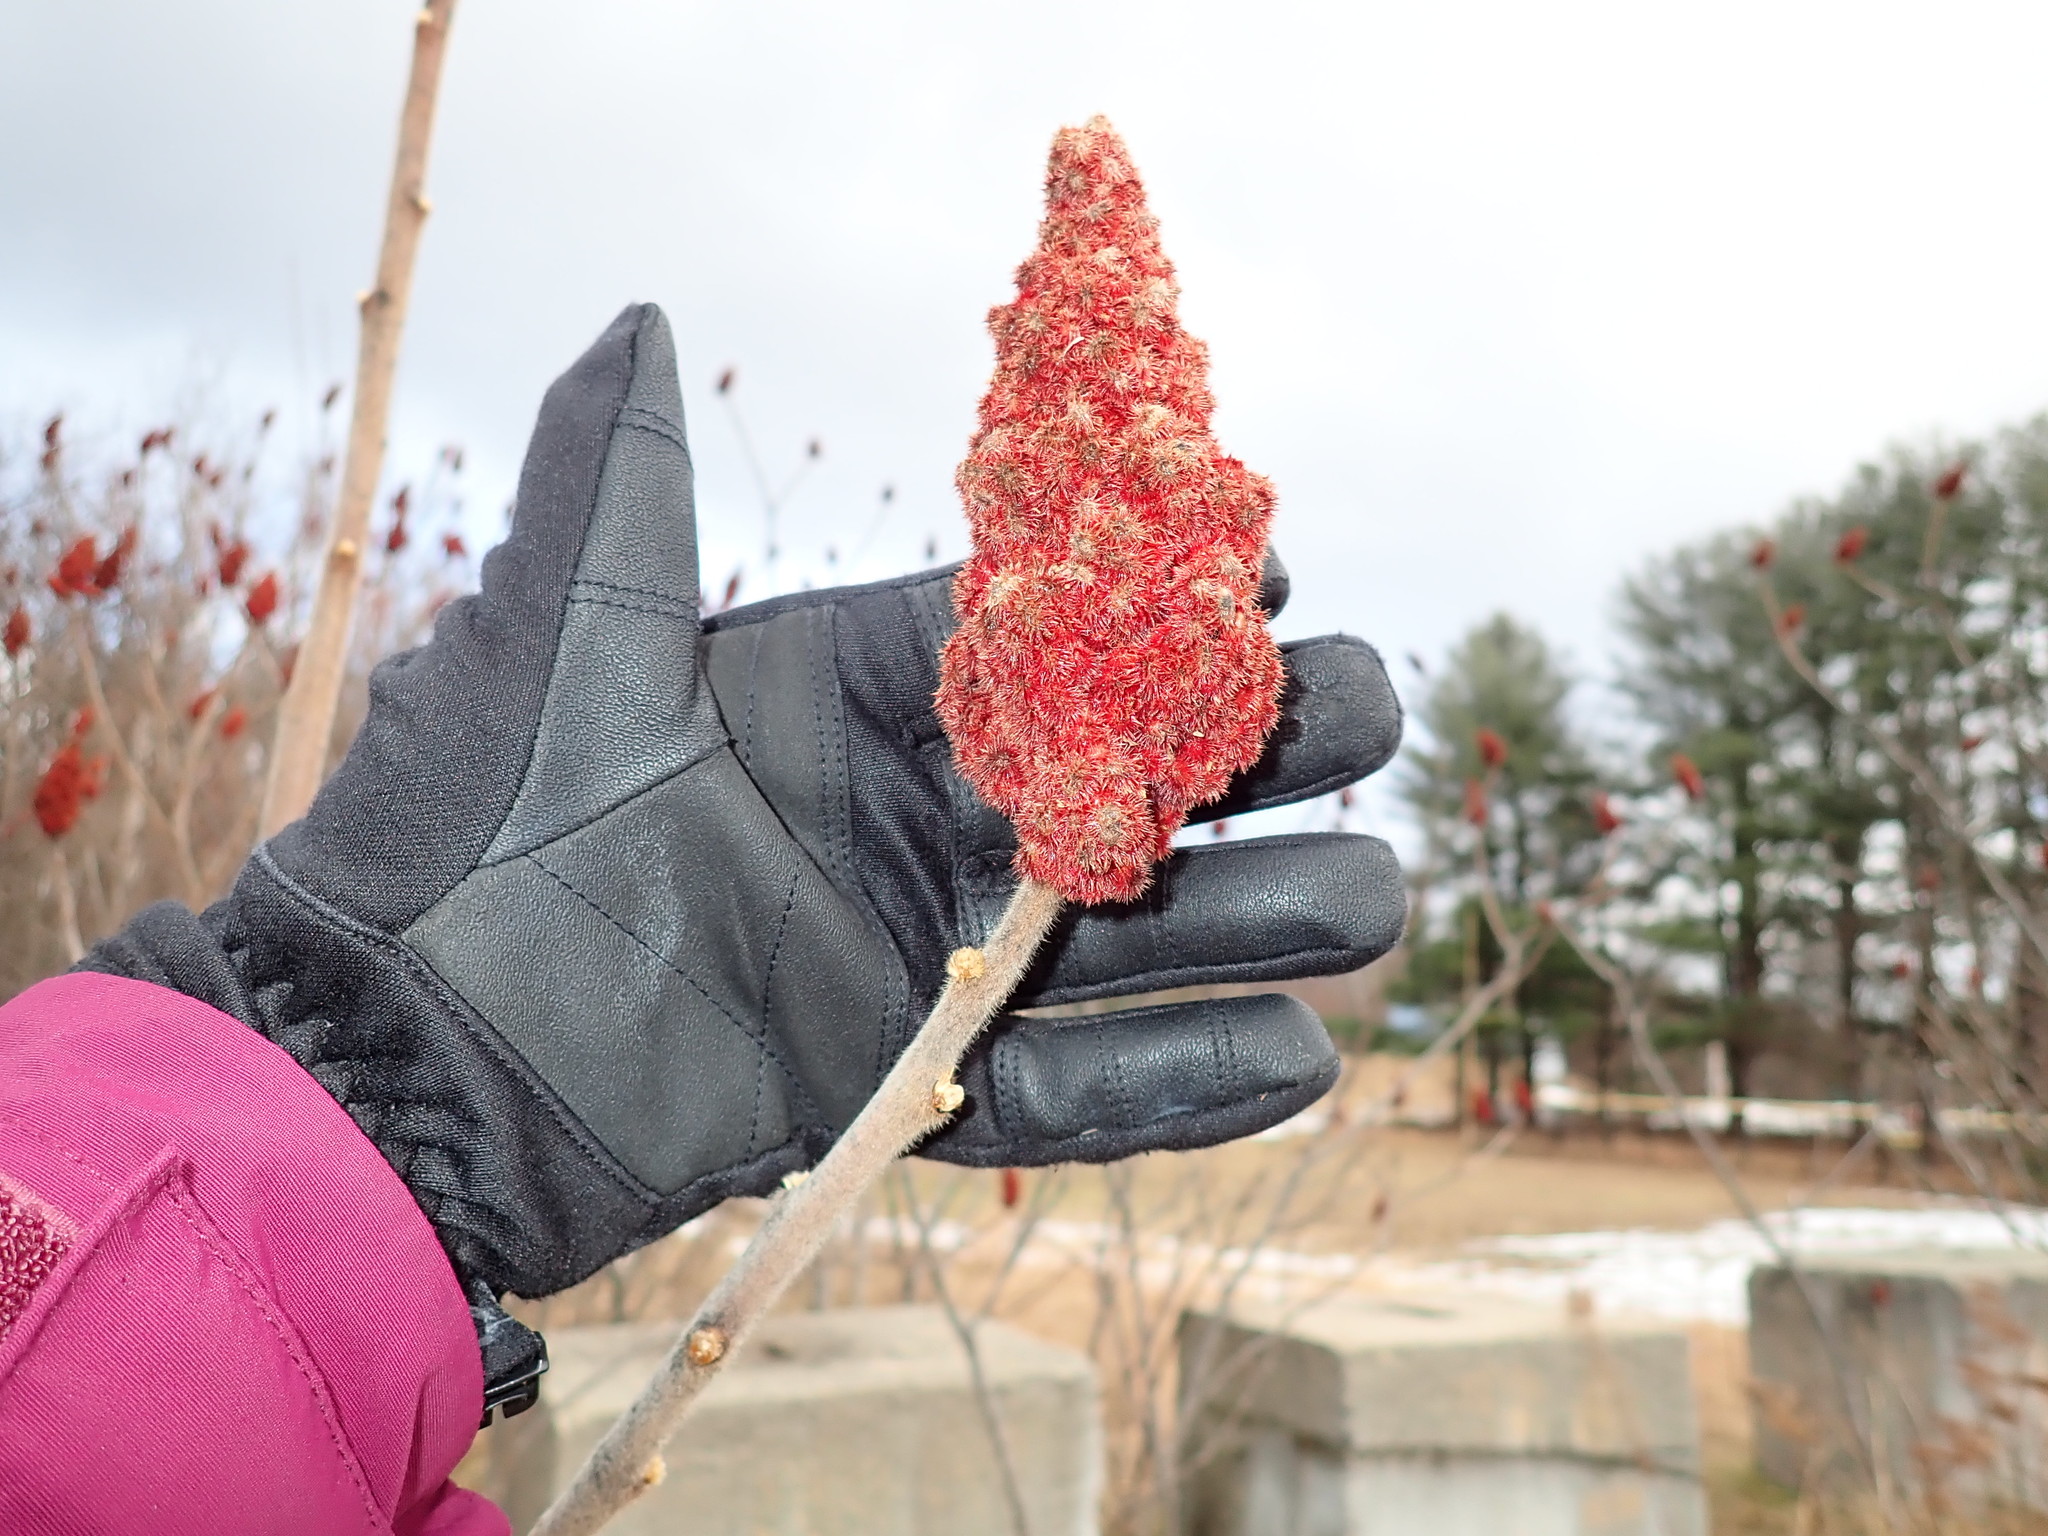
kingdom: Plantae
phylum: Tracheophyta
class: Magnoliopsida
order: Sapindales
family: Anacardiaceae
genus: Rhus
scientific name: Rhus typhina
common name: Staghorn sumac
